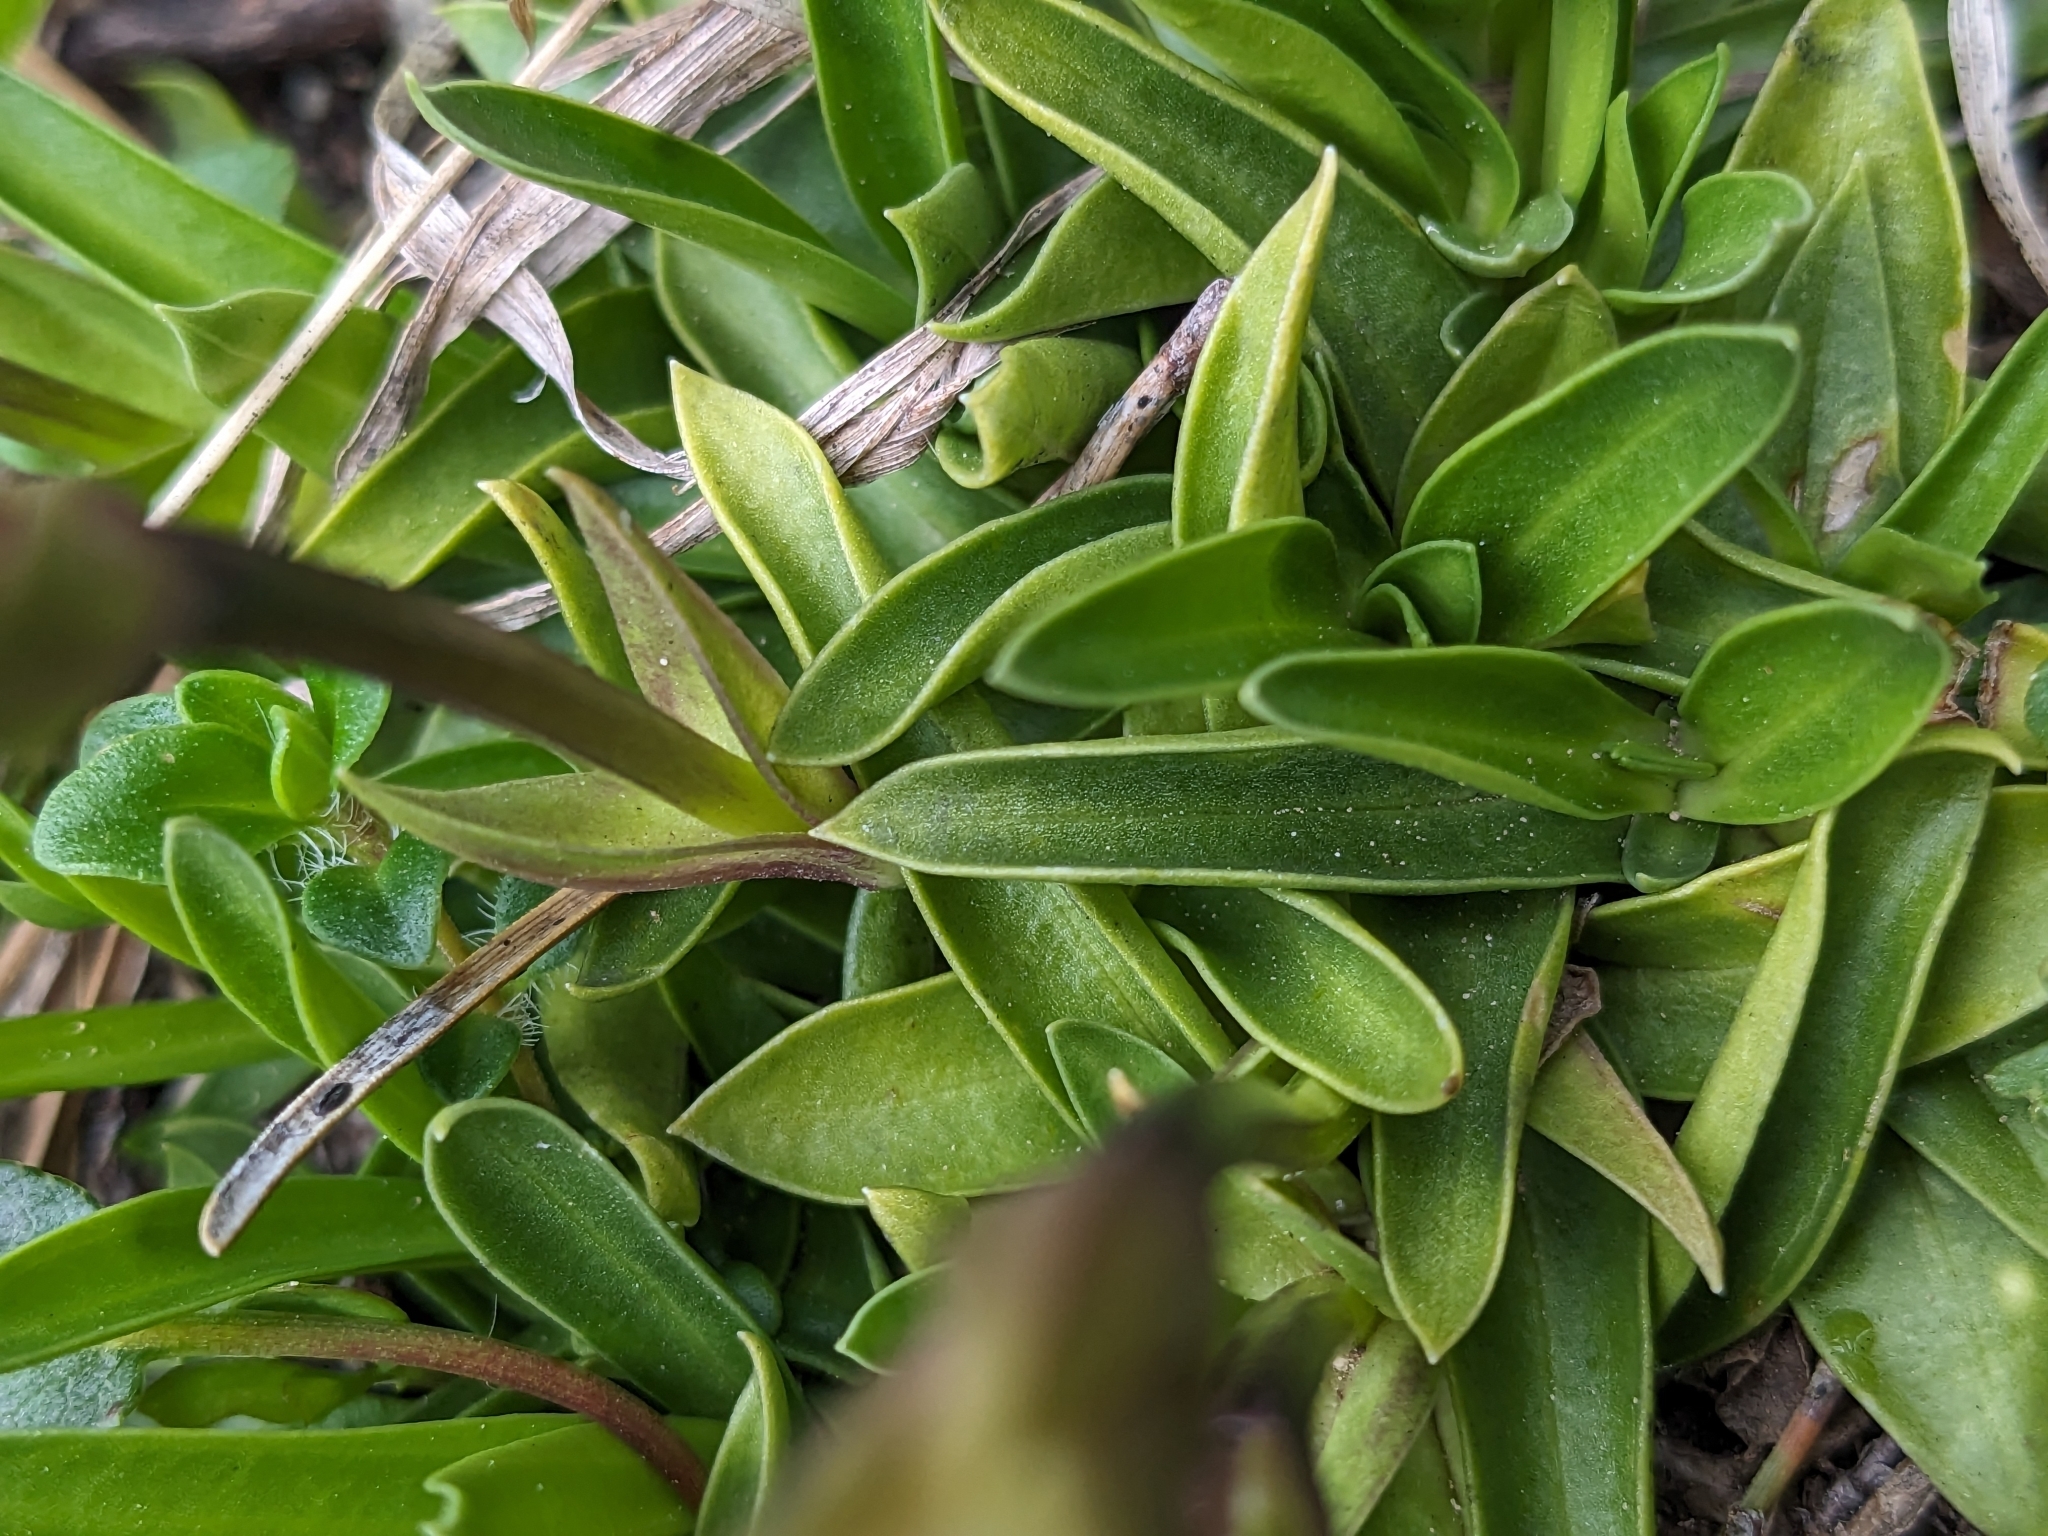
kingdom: Plantae
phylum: Tracheophyta
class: Magnoliopsida
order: Gentianales
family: Gentianaceae
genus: Gentiana
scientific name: Gentiana clusii
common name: Trumpet gentian
